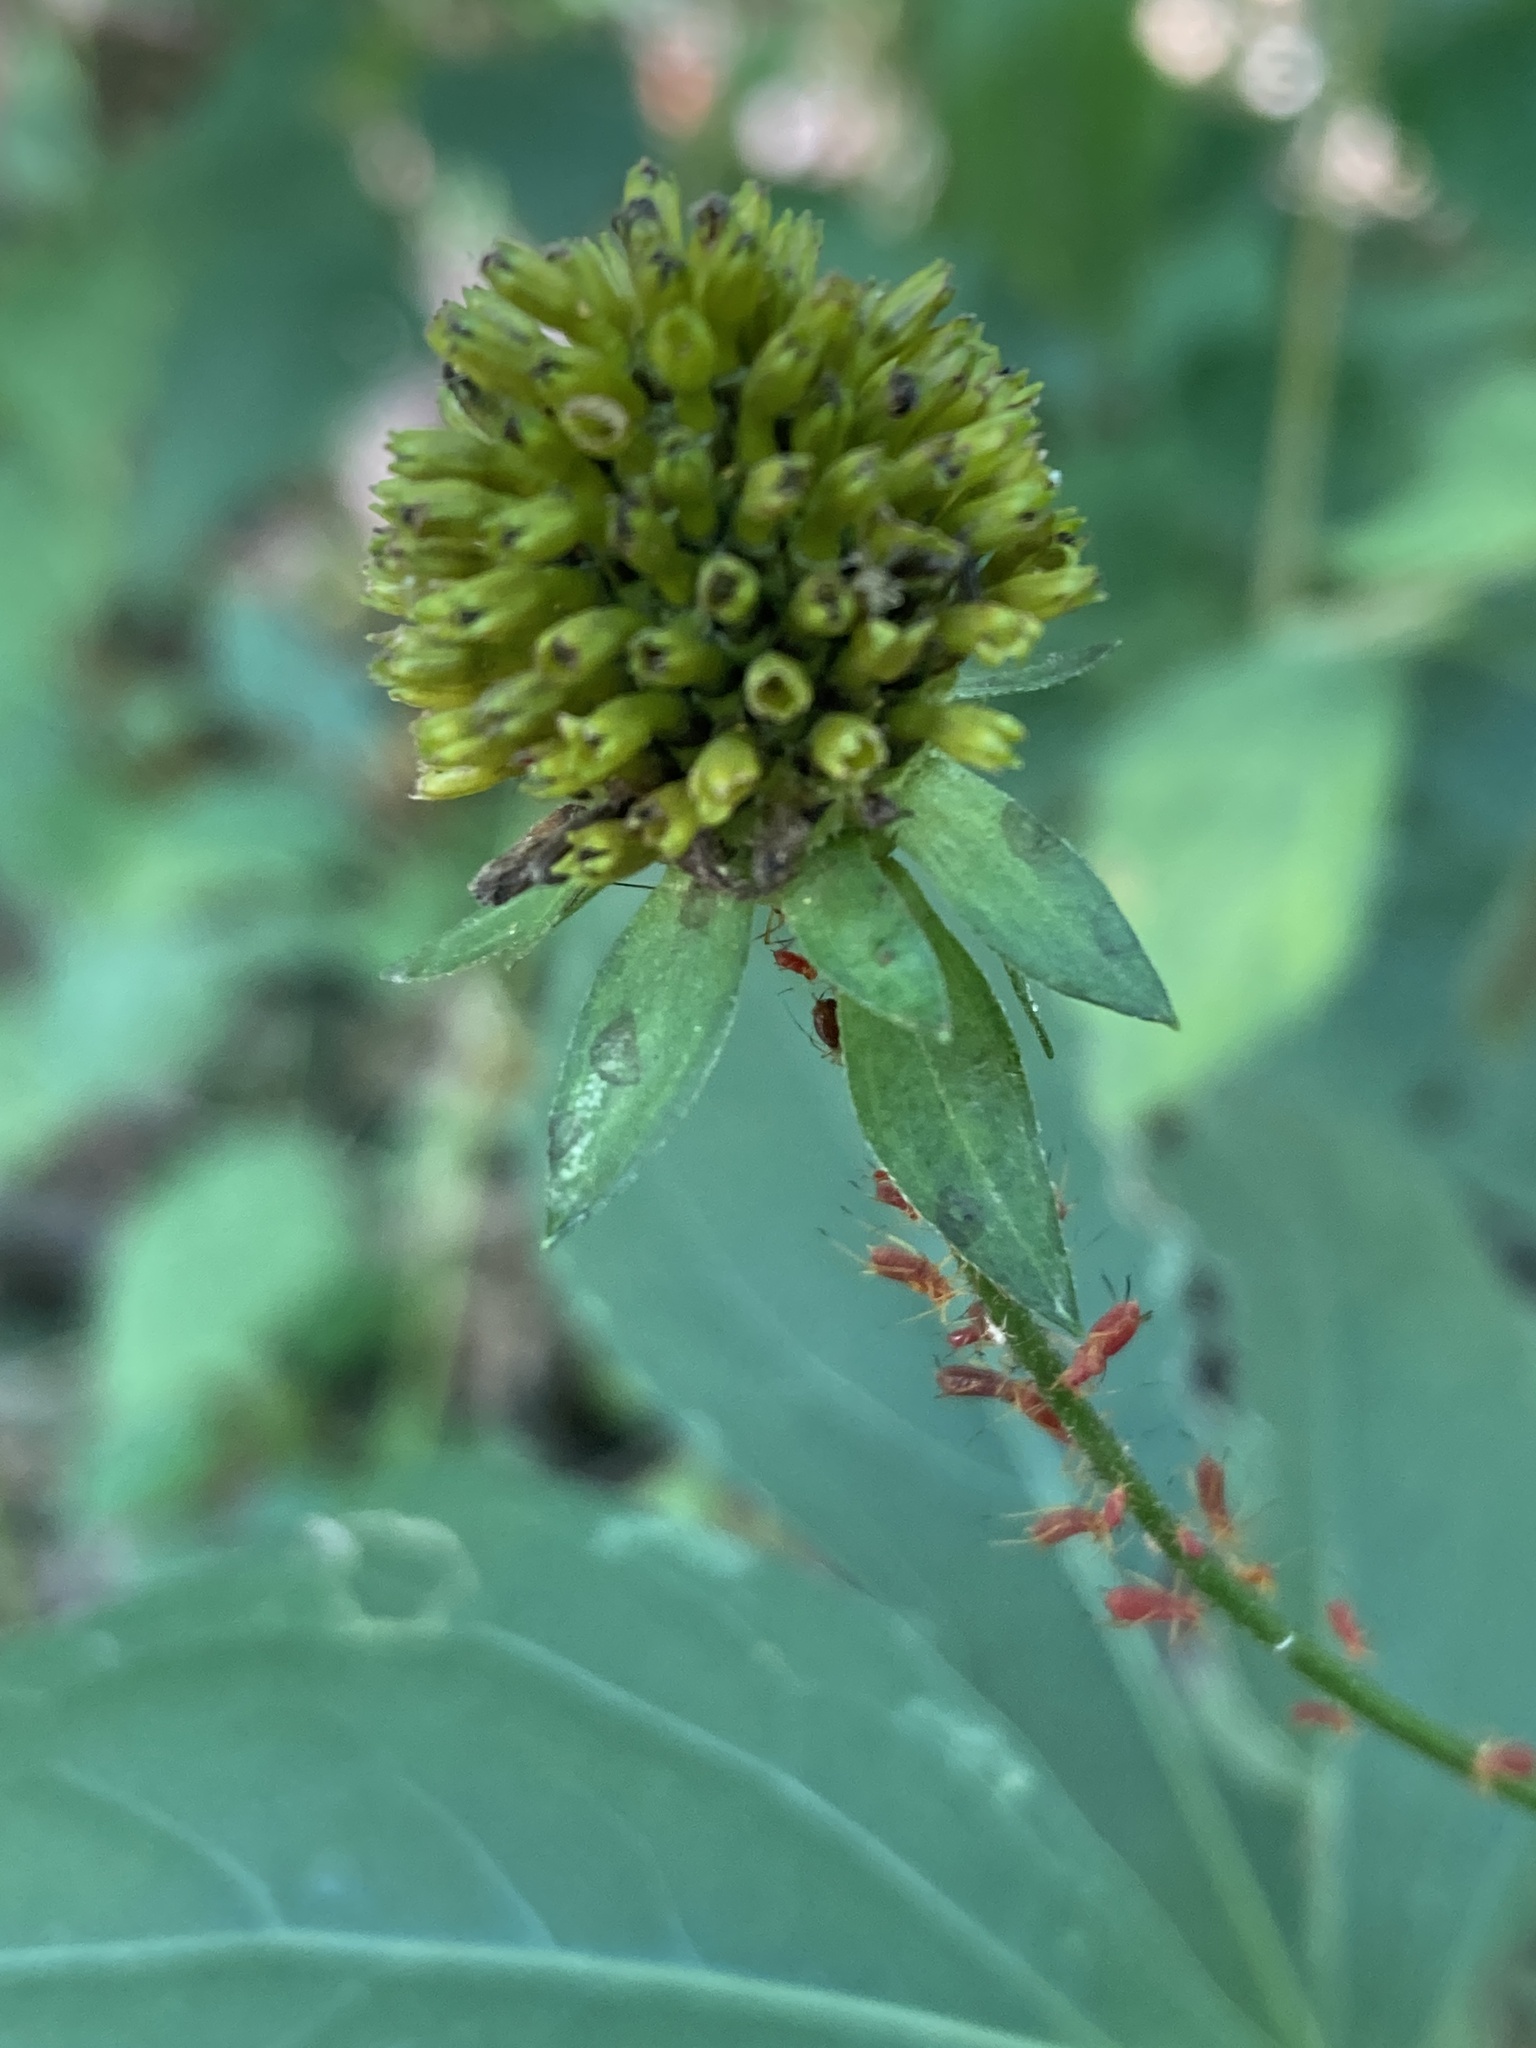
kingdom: Plantae
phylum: Tracheophyta
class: Magnoliopsida
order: Asterales
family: Asteraceae
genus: Rudbeckia
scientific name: Rudbeckia laciniata
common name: Coneflower
